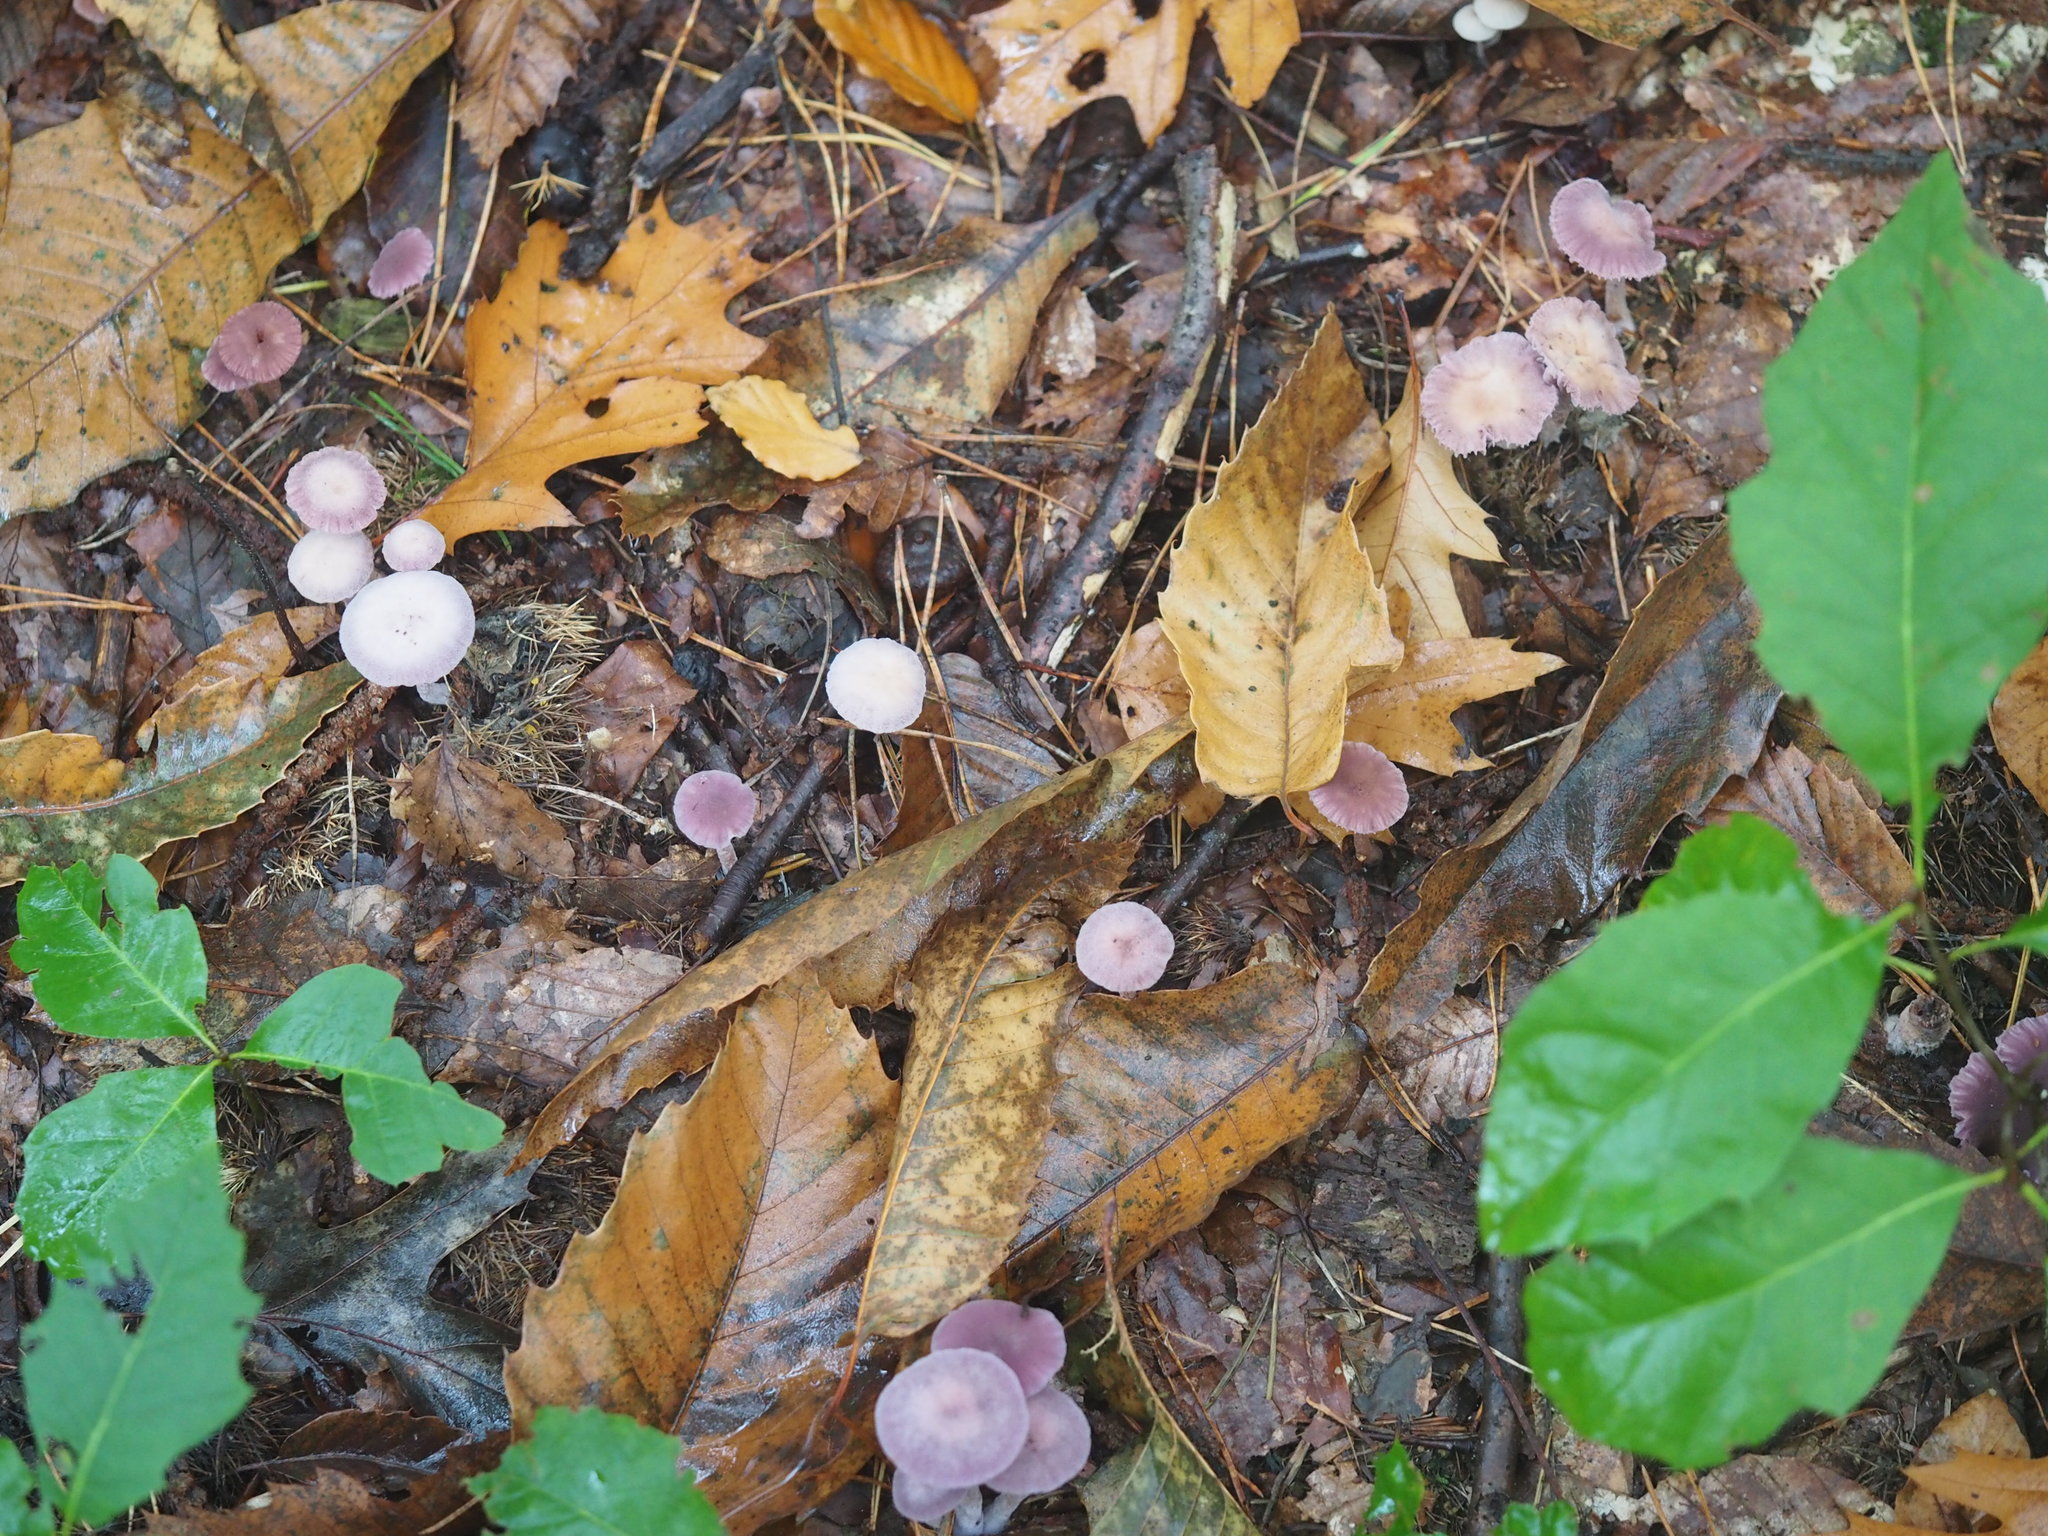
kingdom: Fungi
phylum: Basidiomycota
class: Agaricomycetes
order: Agaricales
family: Hydnangiaceae
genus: Laccaria
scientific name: Laccaria amethystina
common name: Amethyst deceiver
